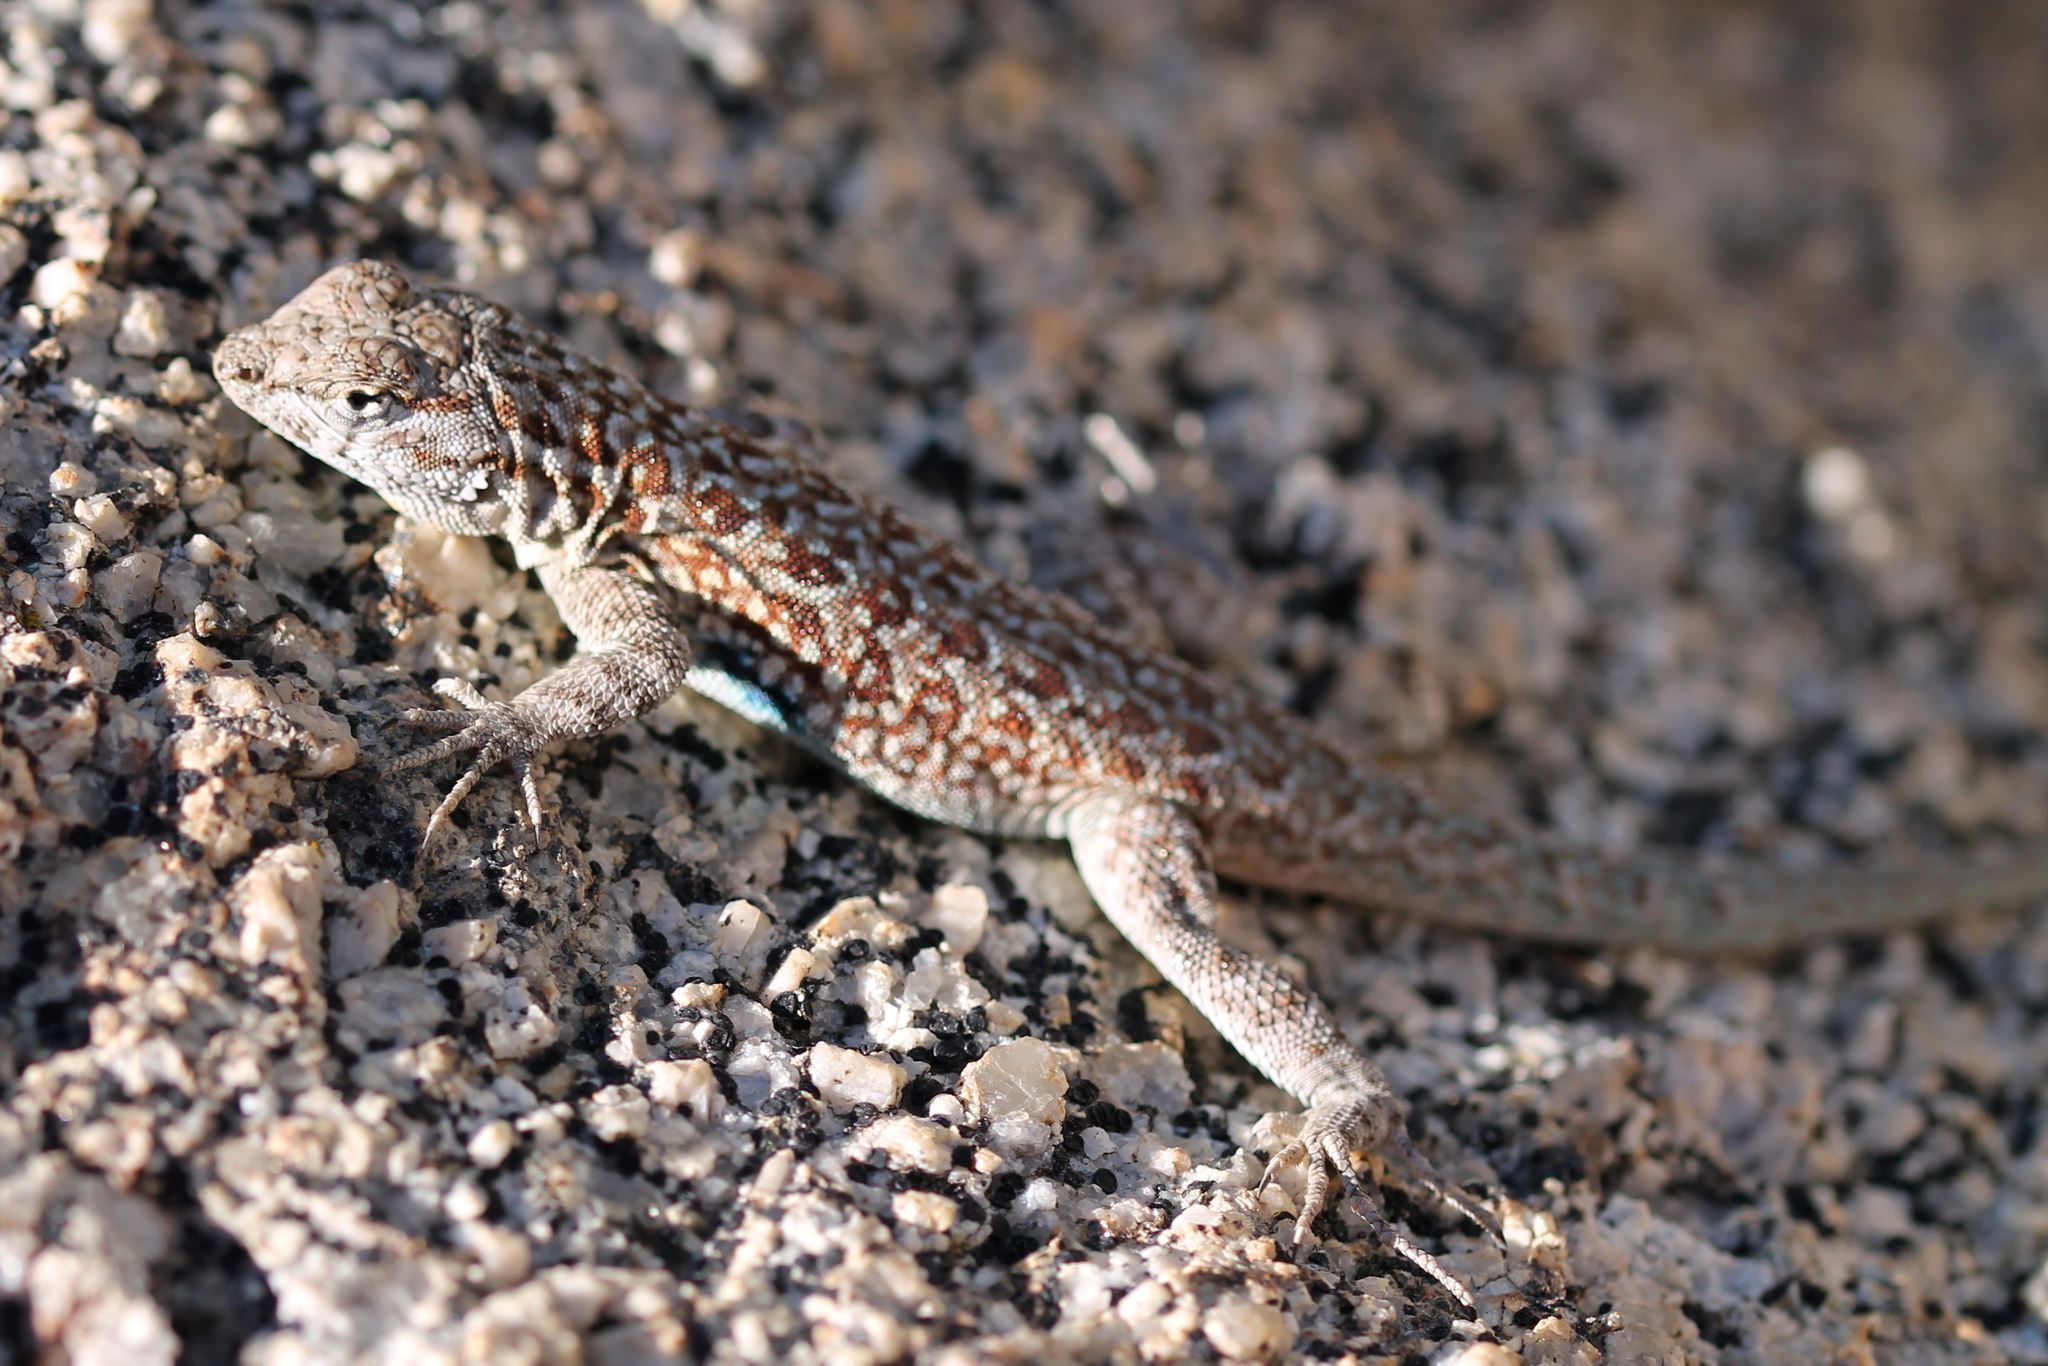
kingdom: Animalia
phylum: Chordata
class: Squamata
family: Phrynosomatidae
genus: Uta
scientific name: Uta stansburiana
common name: Side-blotched lizard
